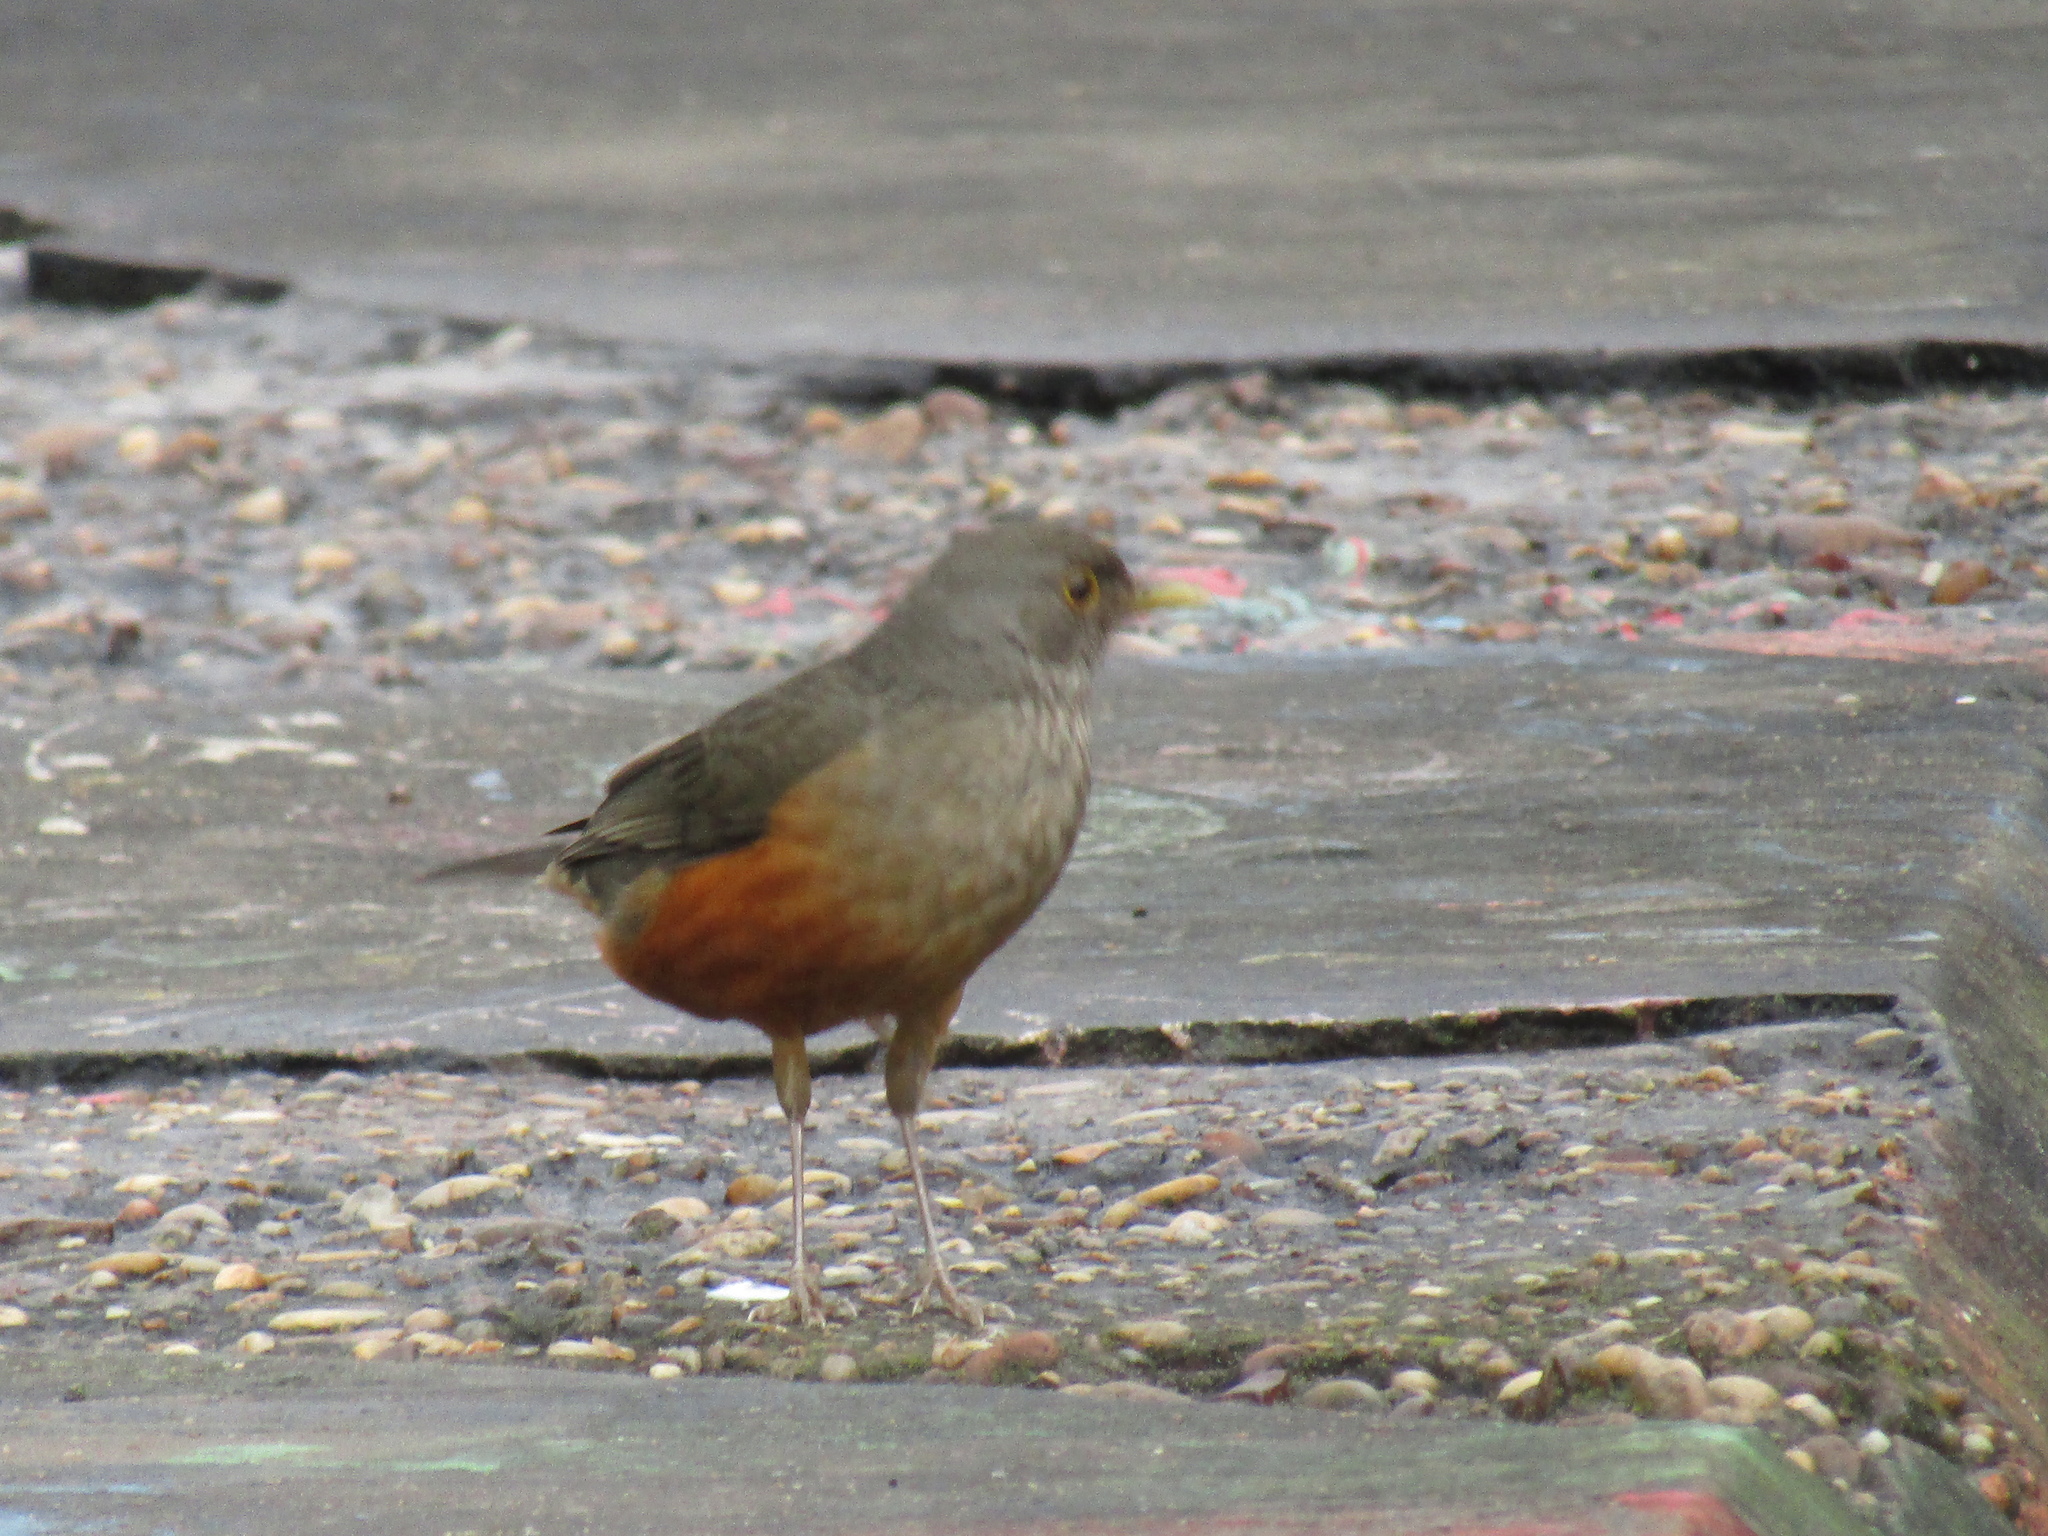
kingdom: Animalia
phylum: Chordata
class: Aves
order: Passeriformes
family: Turdidae
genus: Turdus
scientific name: Turdus rufiventris
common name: Rufous-bellied thrush
